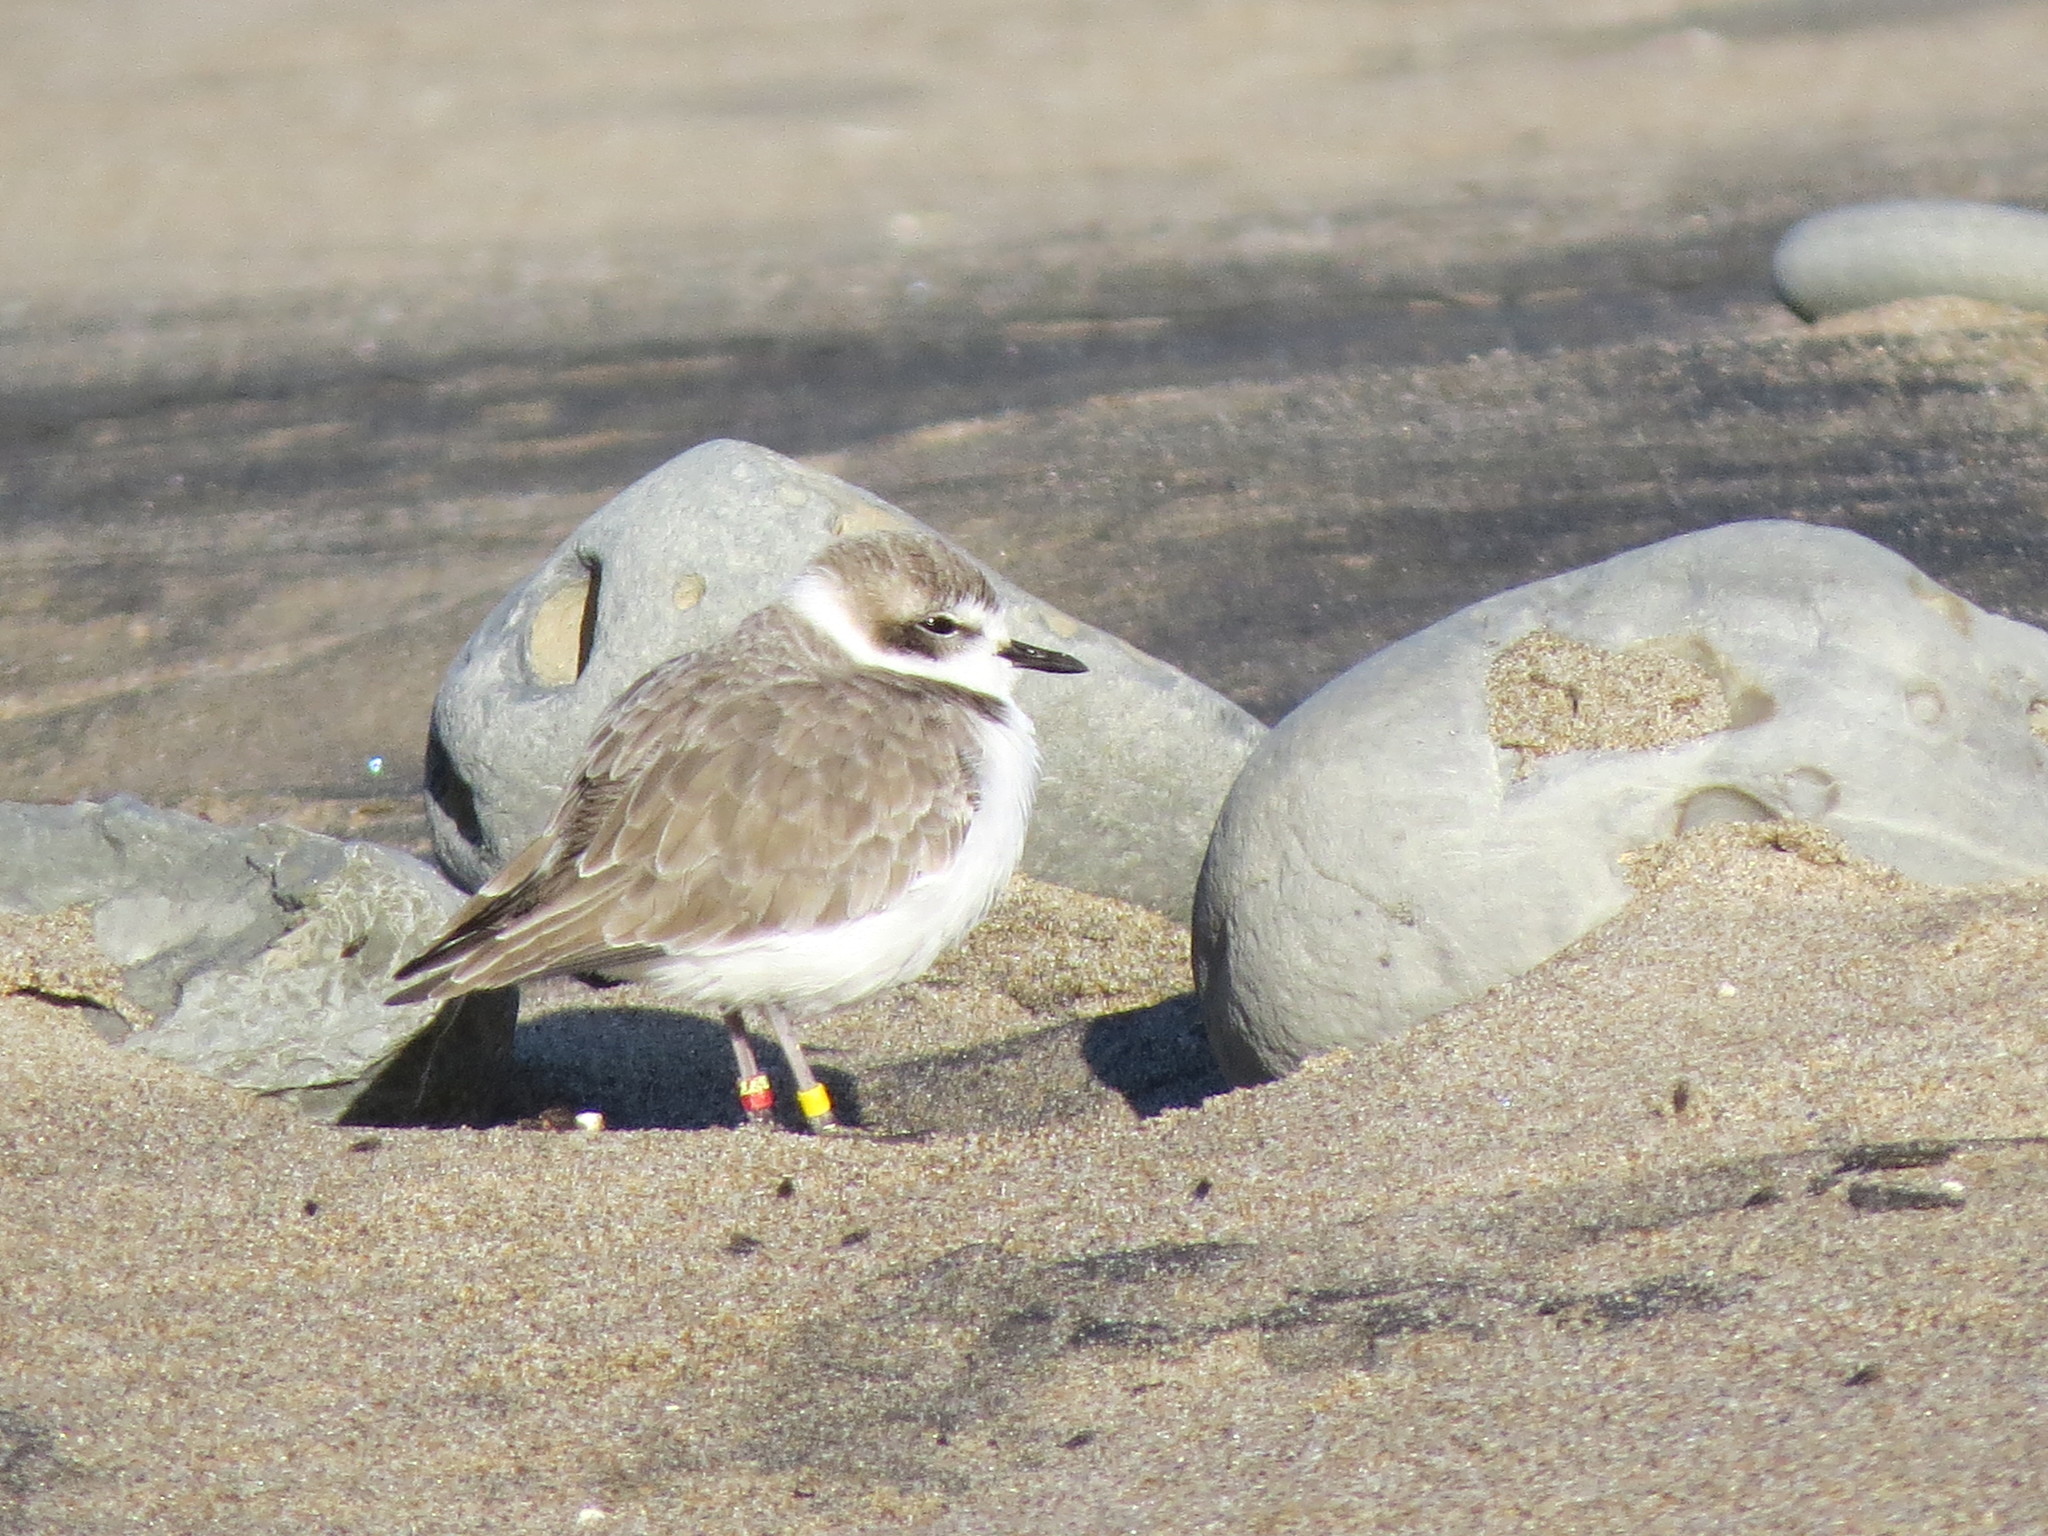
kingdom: Animalia
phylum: Chordata
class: Aves
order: Charadriiformes
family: Charadriidae
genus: Anarhynchus
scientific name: Anarhynchus
